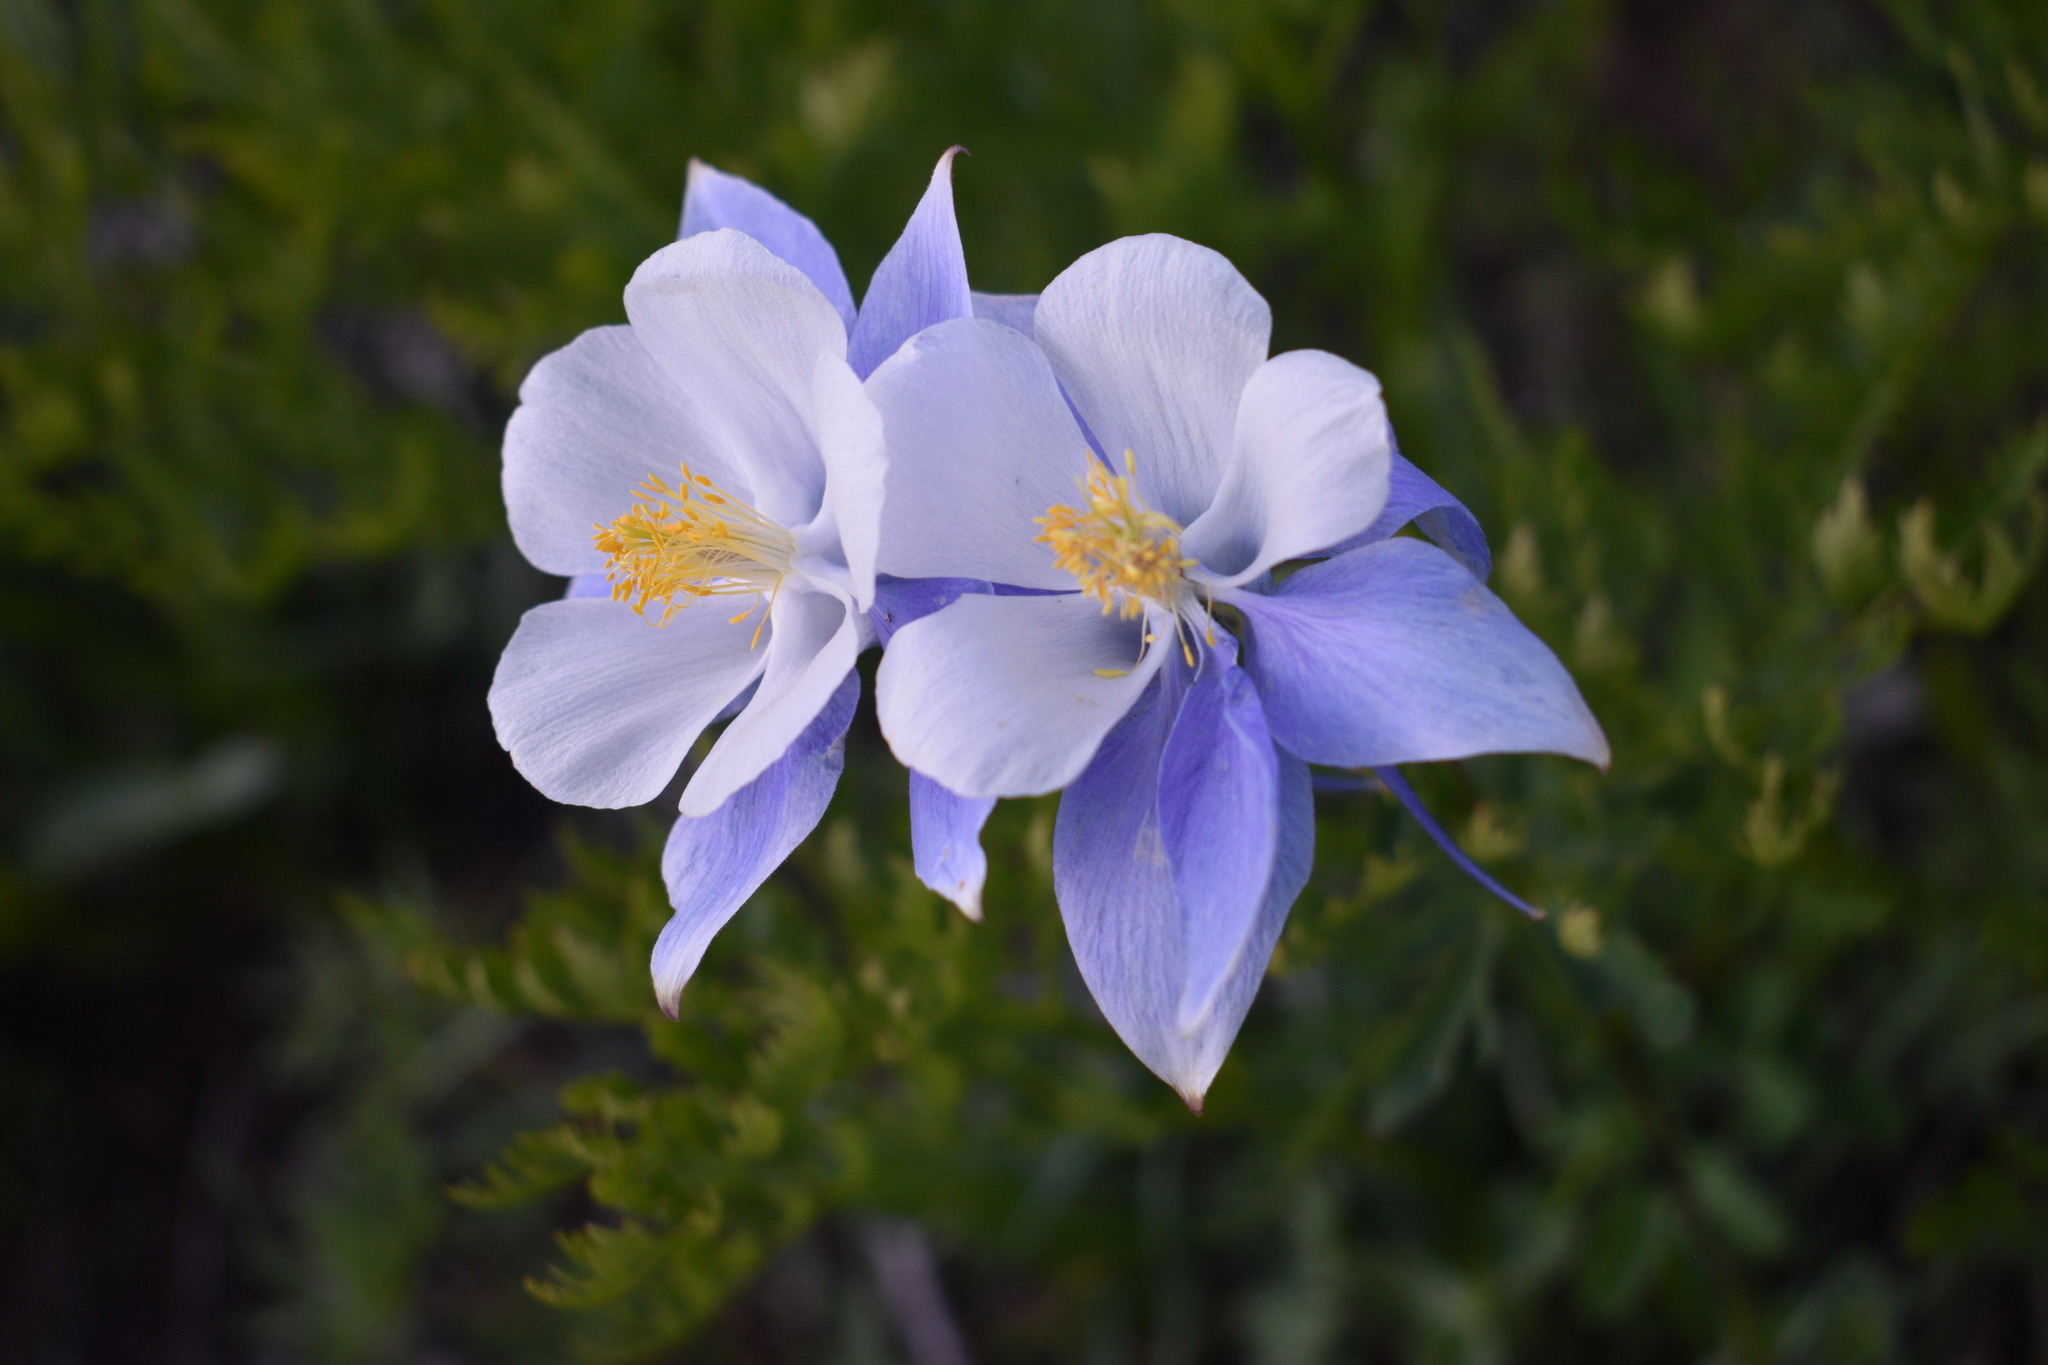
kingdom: Plantae
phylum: Tracheophyta
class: Magnoliopsida
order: Ranunculales
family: Ranunculaceae
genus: Aquilegia
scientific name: Aquilegia coerulea
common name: Rocky mountain columbine
